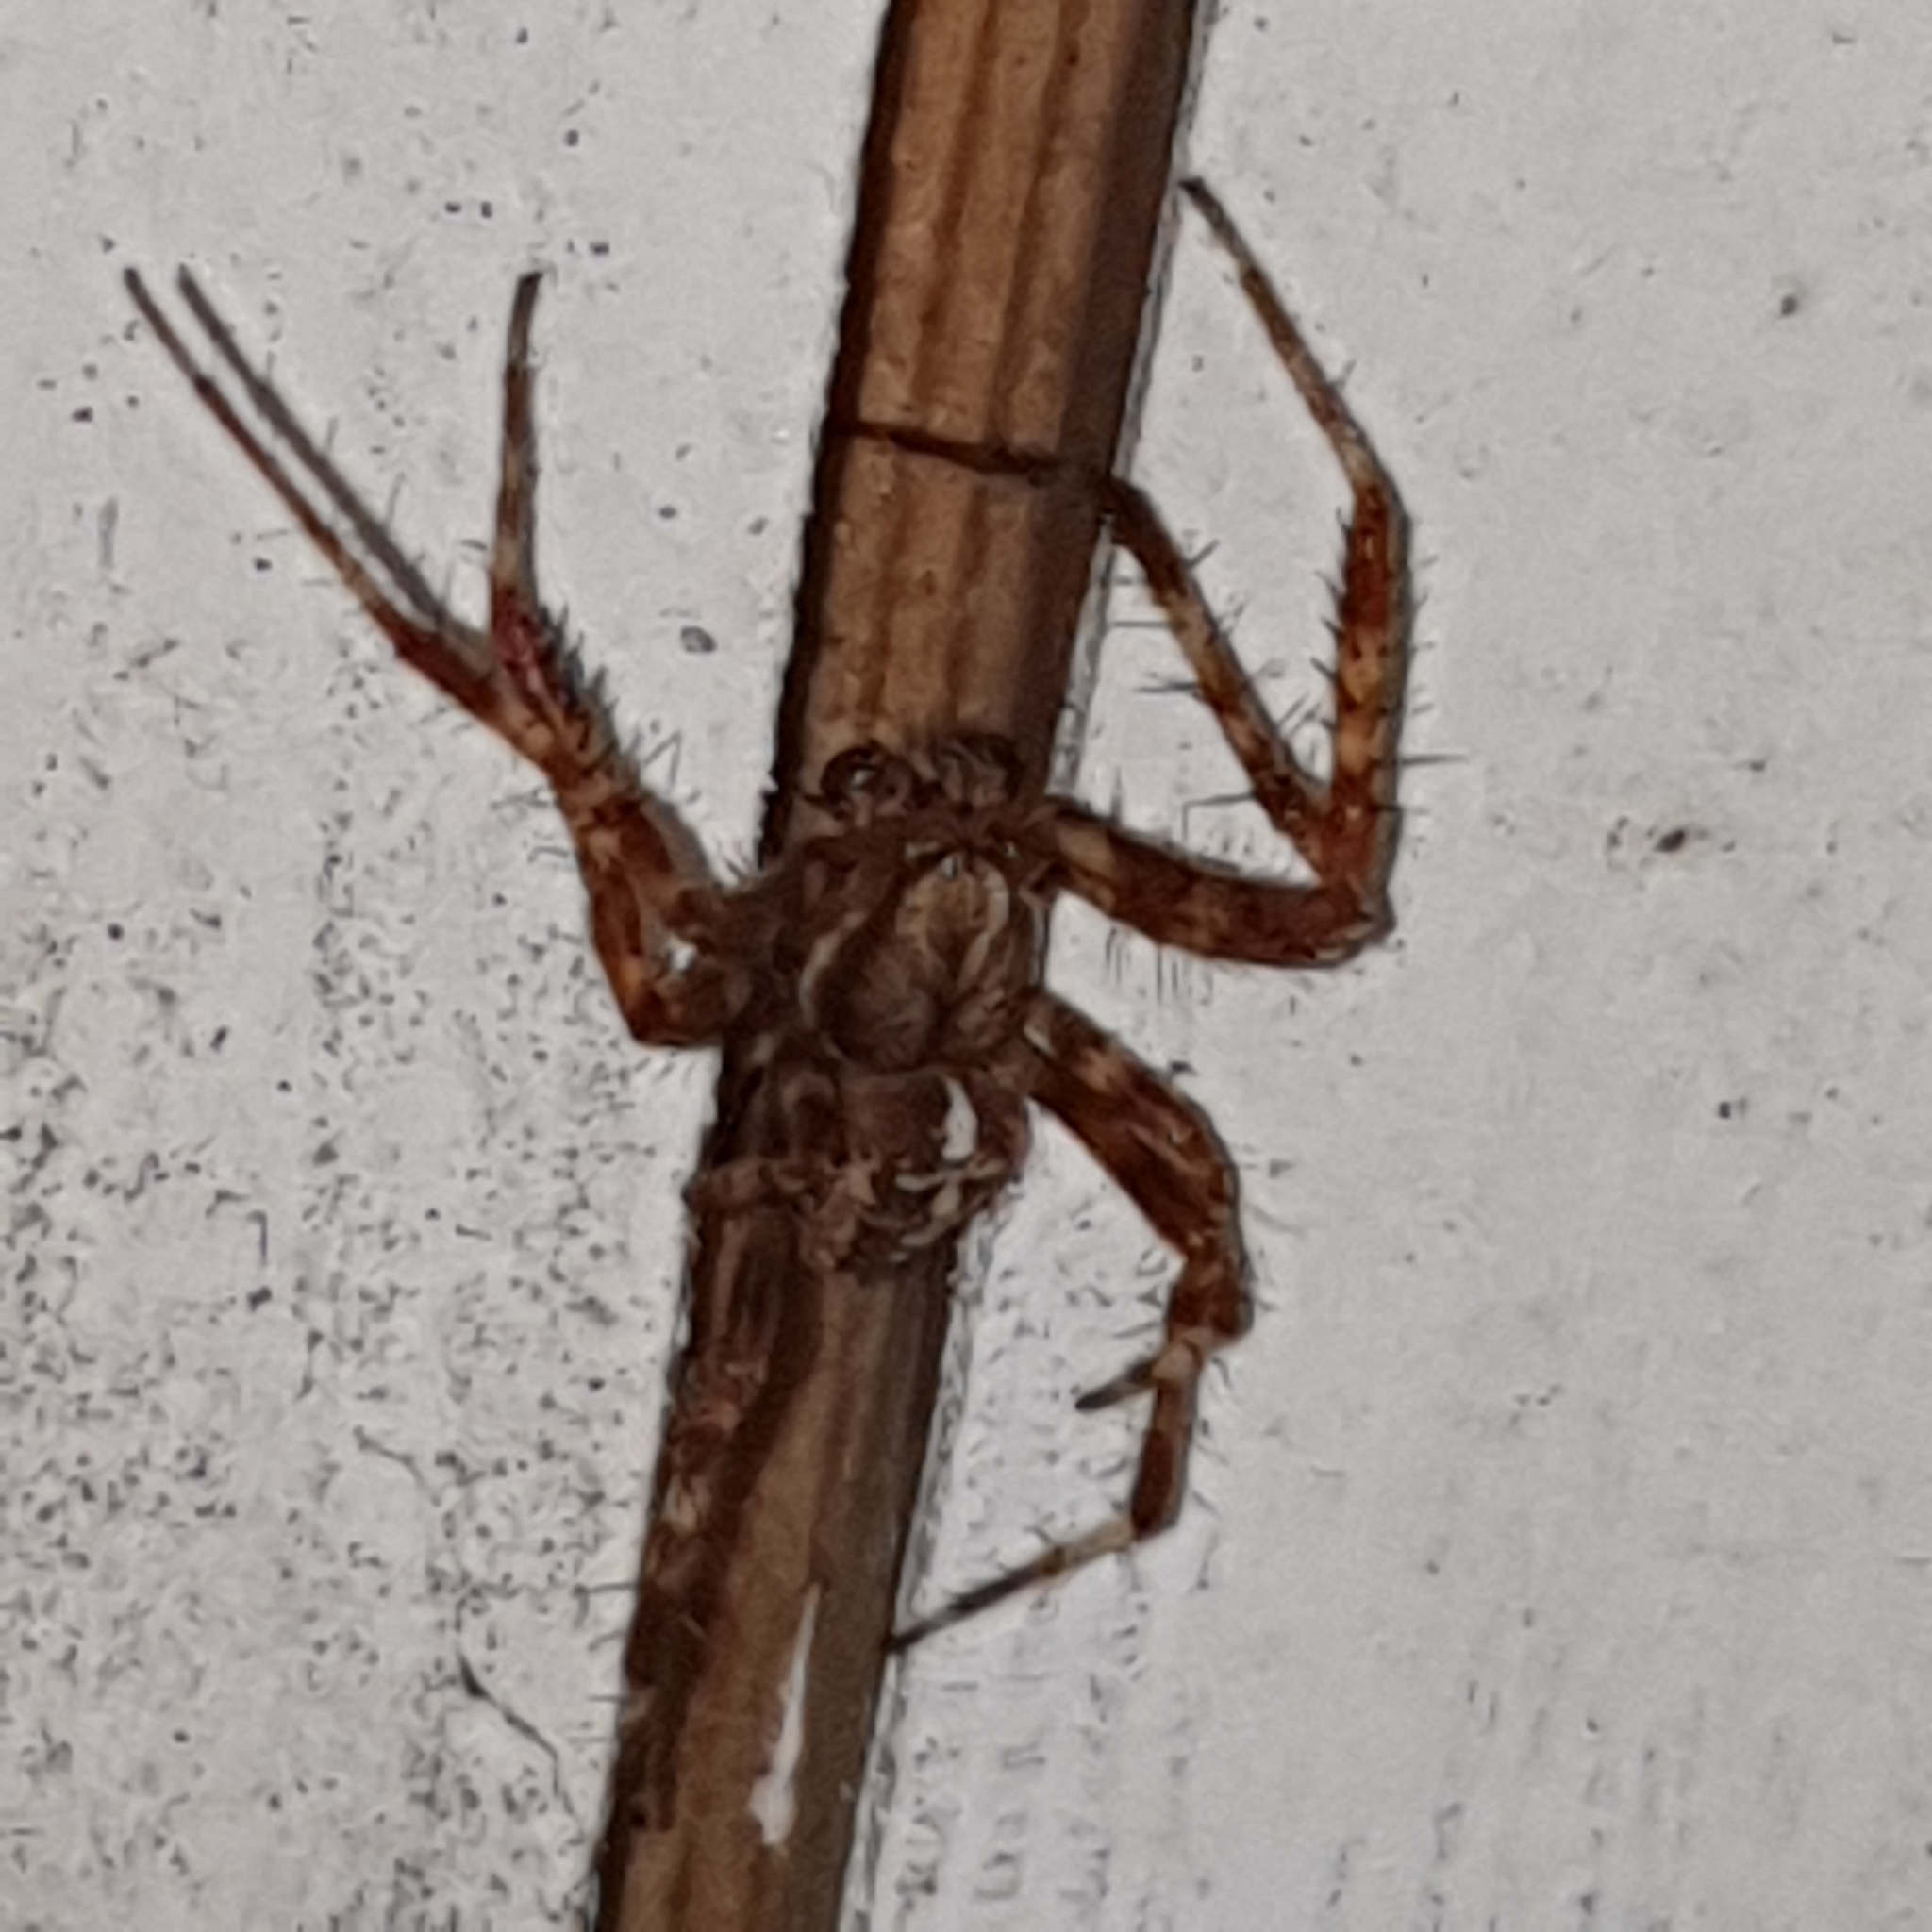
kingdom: Animalia
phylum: Arthropoda
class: Arachnida
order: Araneae
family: Araneidae
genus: Araneus
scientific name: Araneus diadematus
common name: Cross orbweaver
